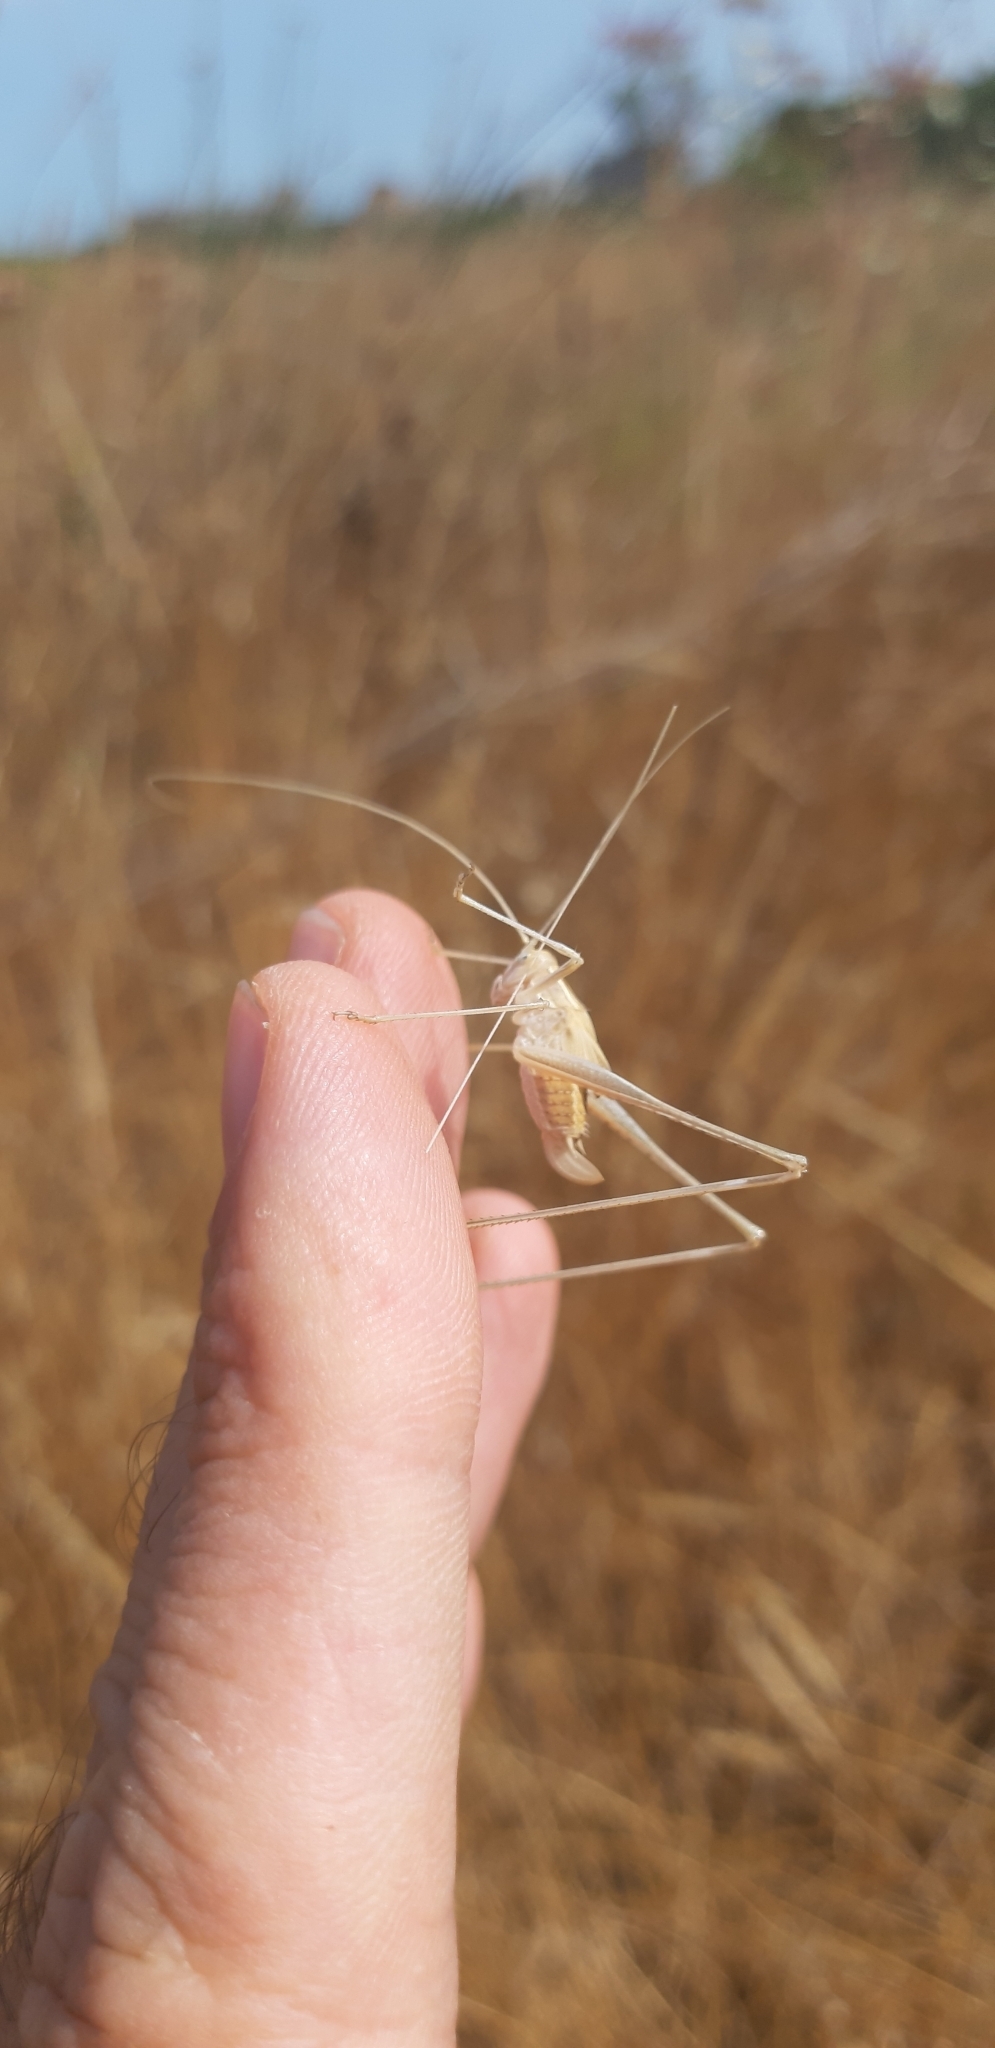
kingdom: Animalia
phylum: Arthropoda
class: Insecta
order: Orthoptera
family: Tettigoniidae
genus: Tylopsis
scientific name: Tylopsis lilifolia
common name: Lily bush-cricket
